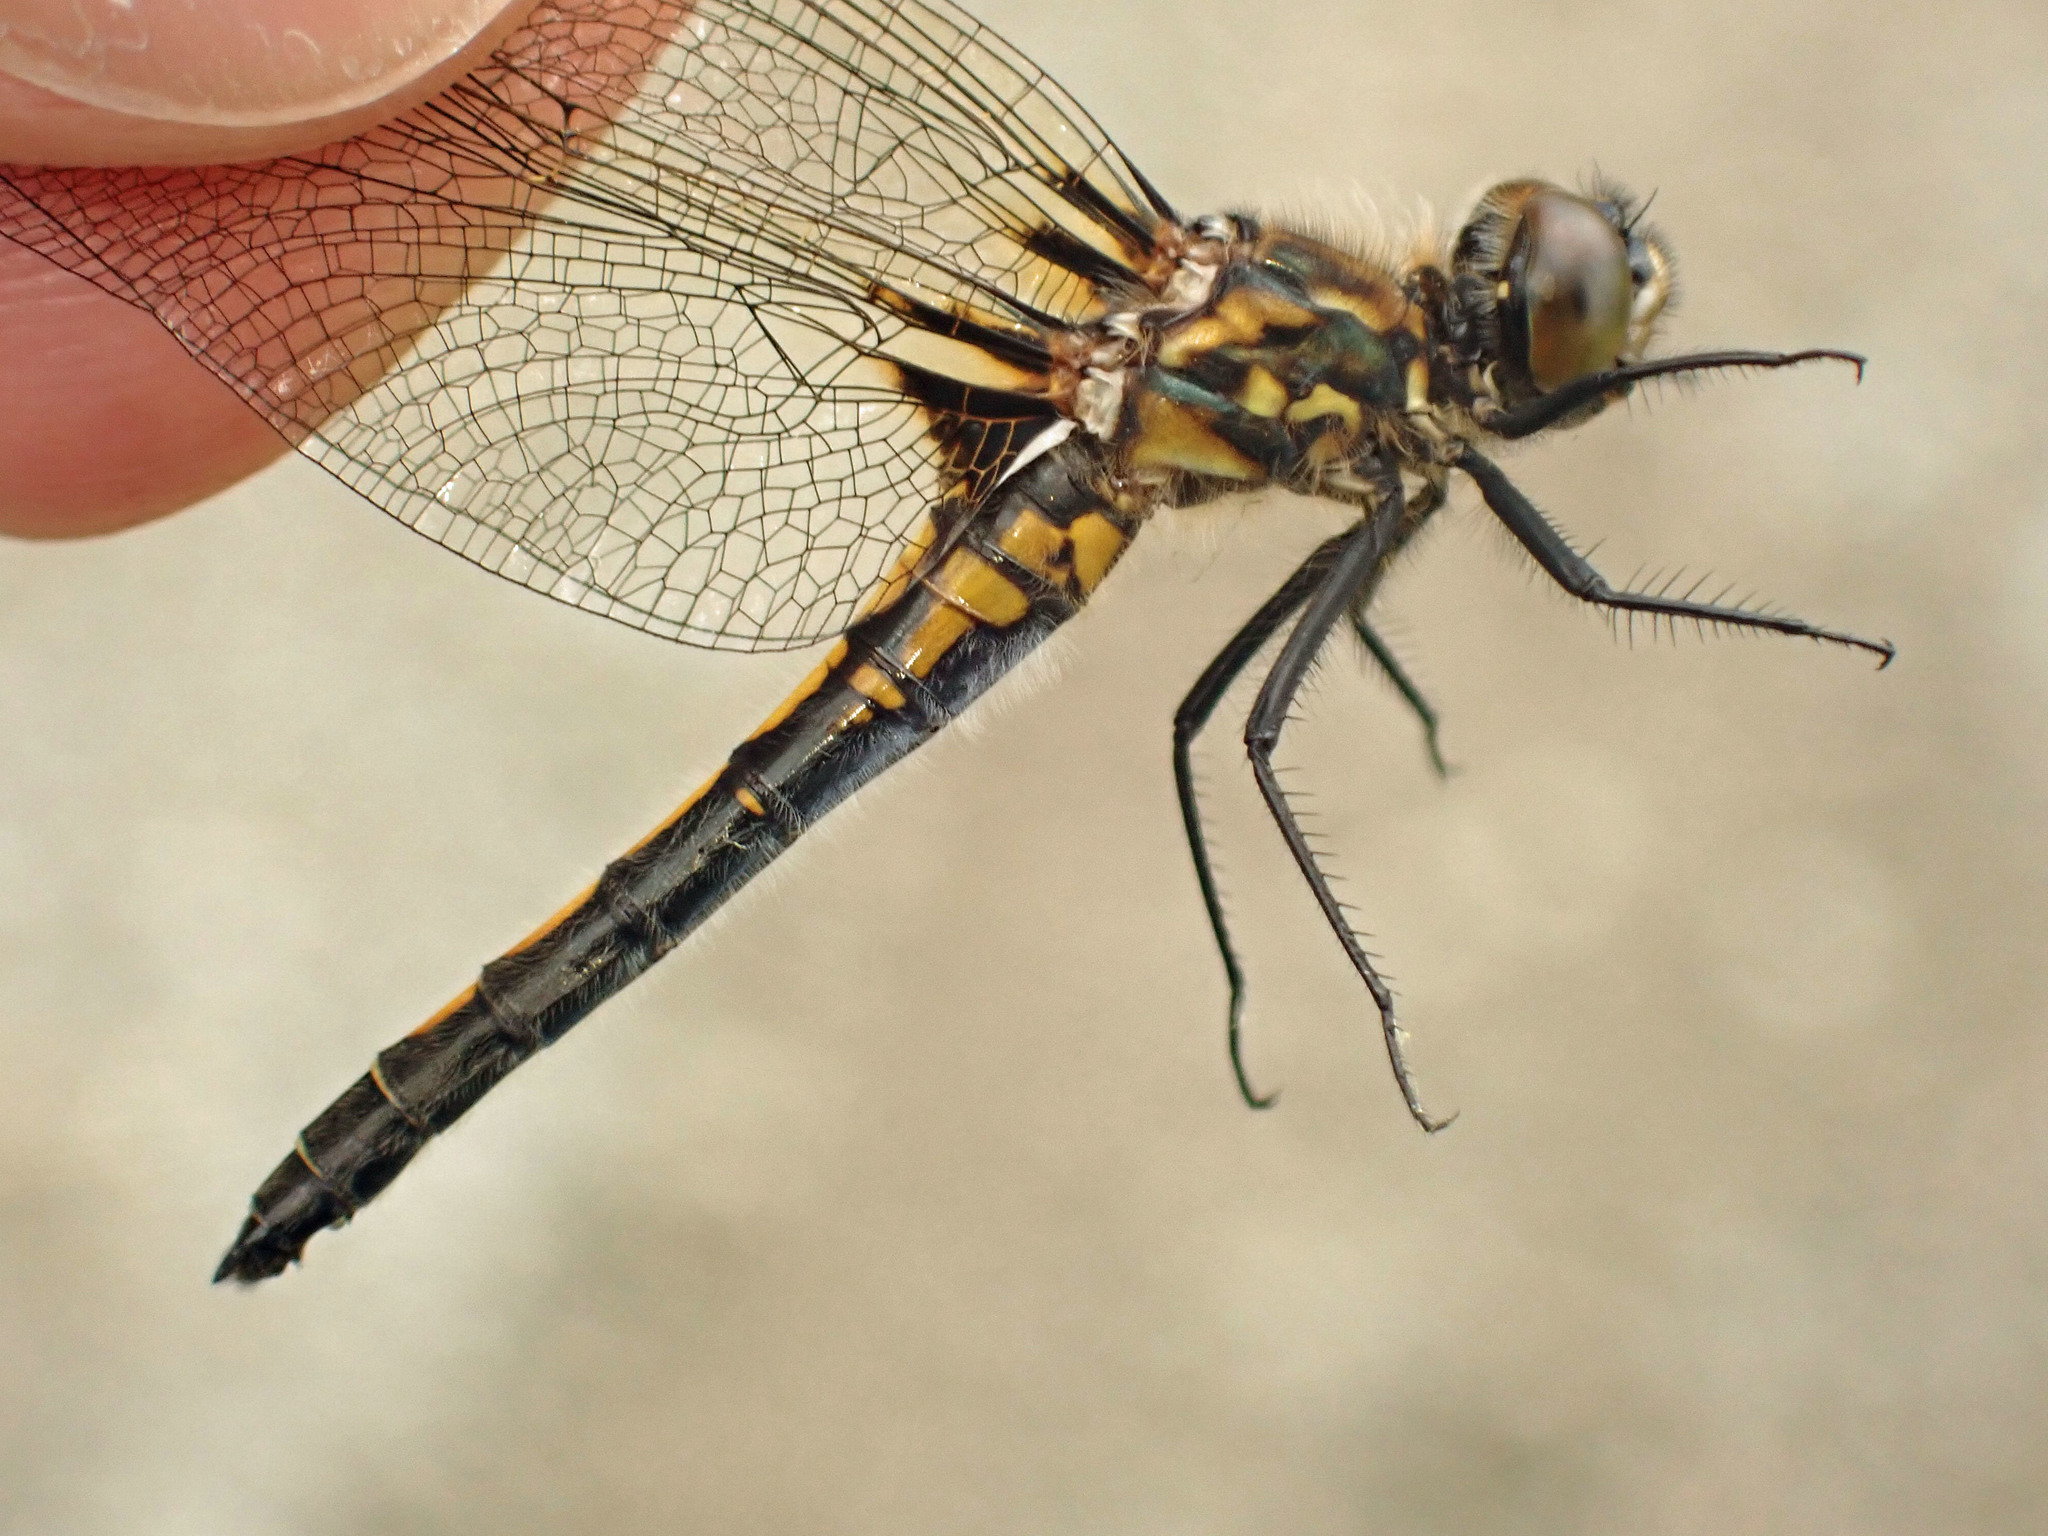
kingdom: Animalia
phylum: Arthropoda
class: Insecta
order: Odonata
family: Libellulidae
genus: Leucorrhinia
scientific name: Leucorrhinia hudsonica
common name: Hudsonian whiteface
